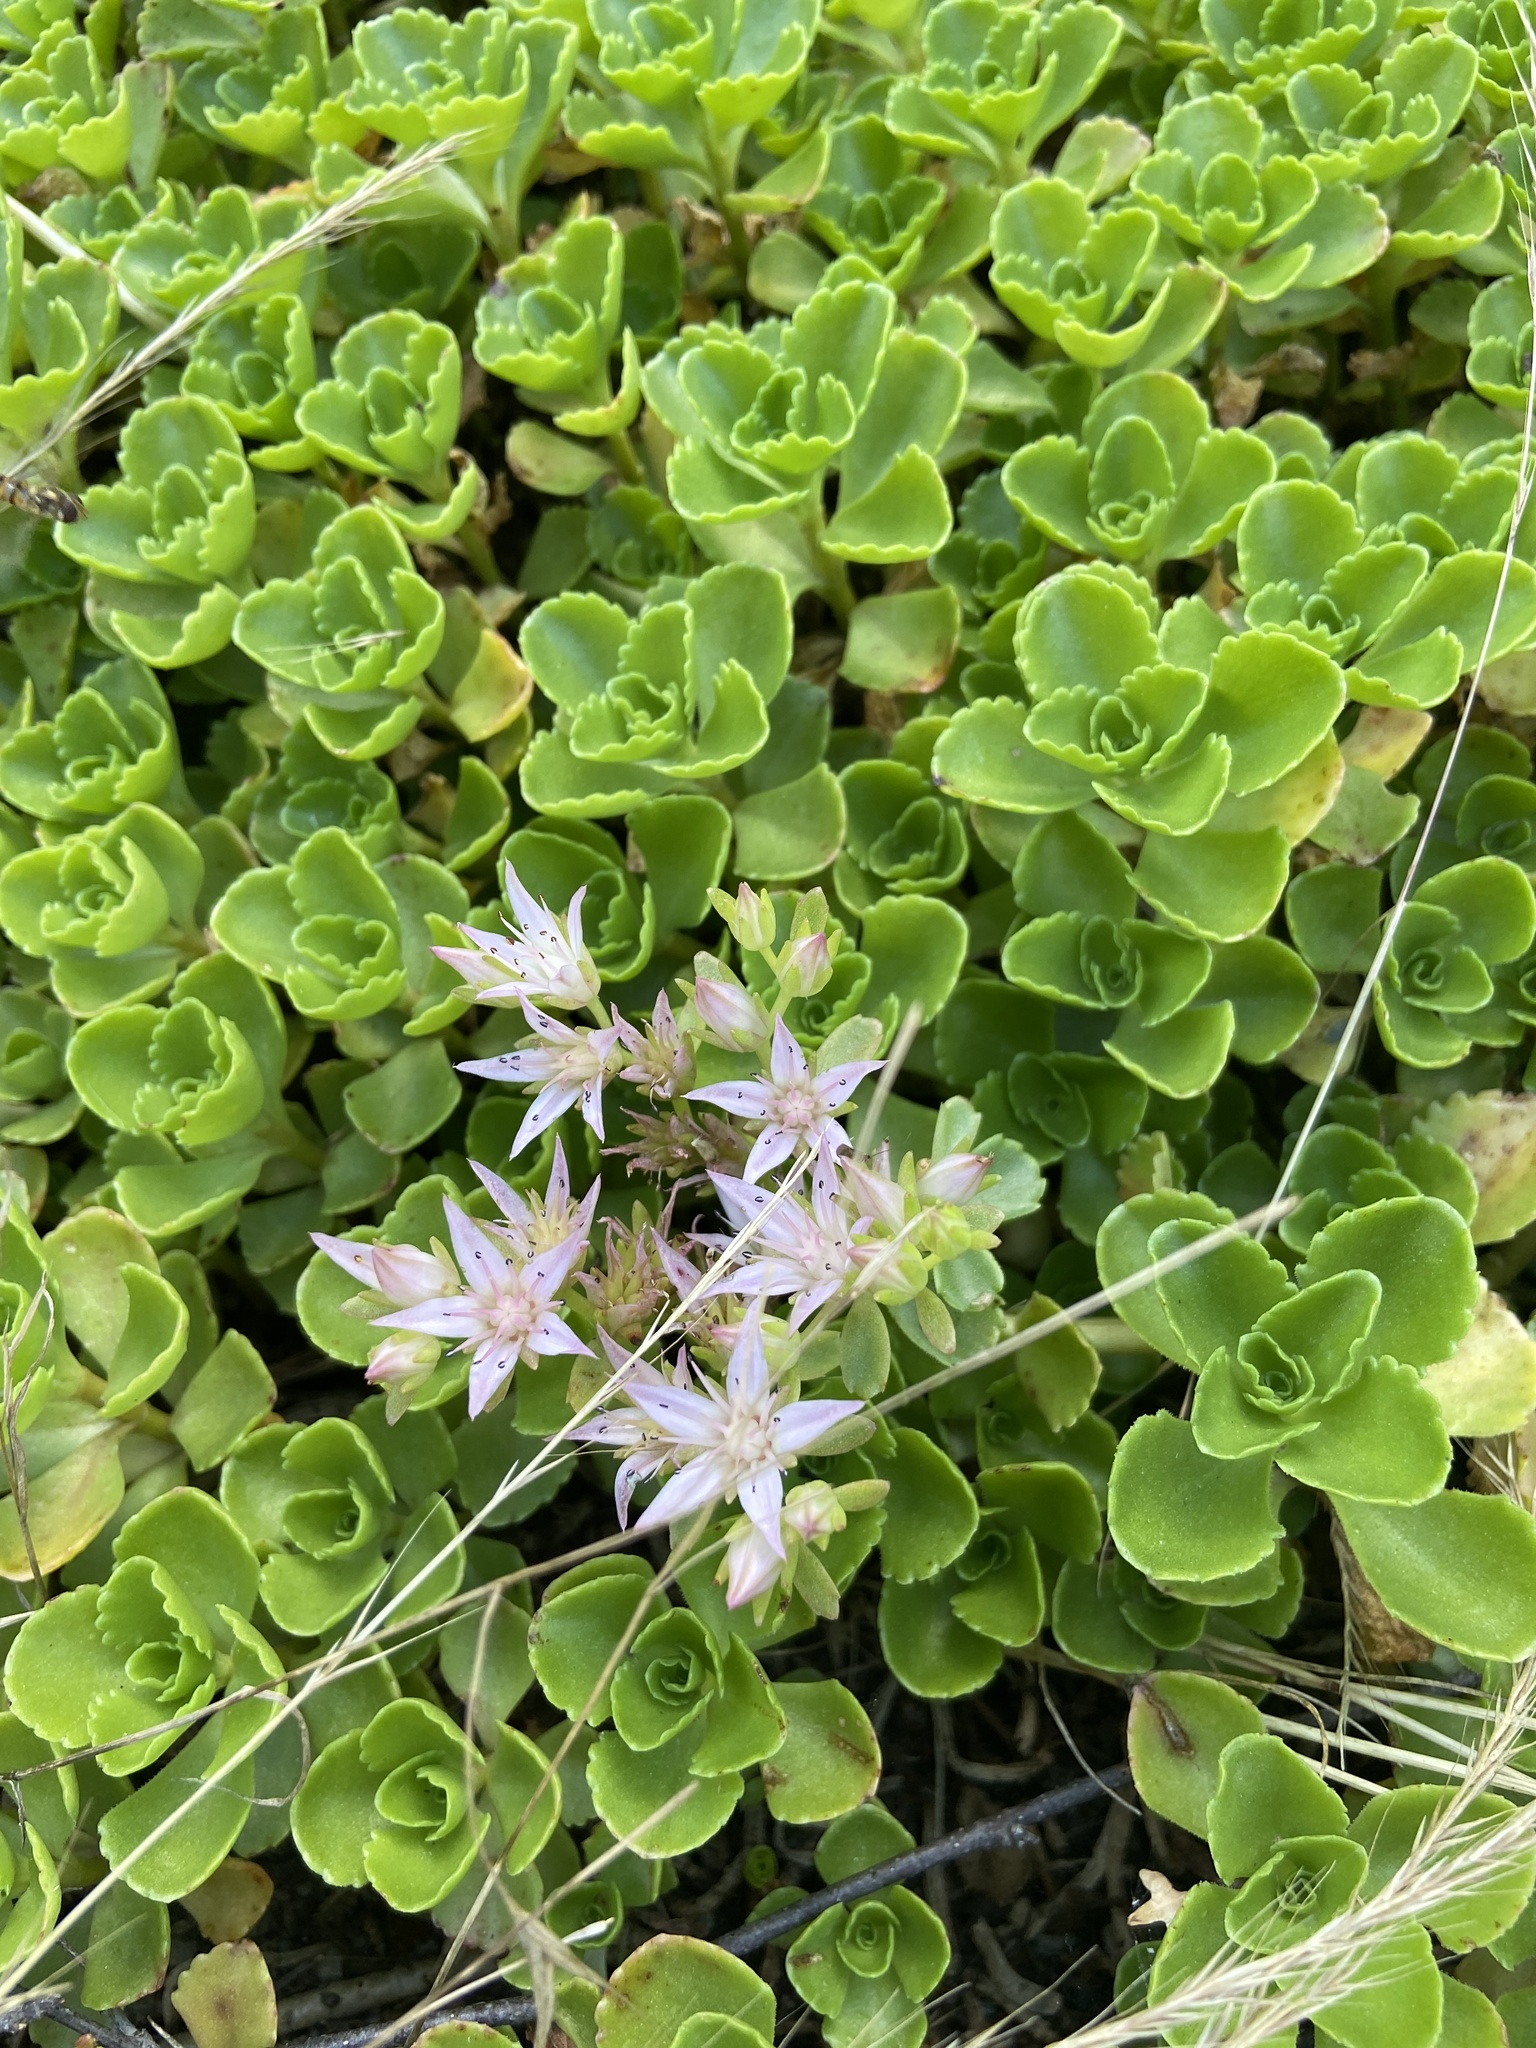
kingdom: Plantae
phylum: Tracheophyta
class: Magnoliopsida
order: Saxifragales
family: Crassulaceae
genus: Phedimus
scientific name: Phedimus spurius
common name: Caucasian stonecrop
